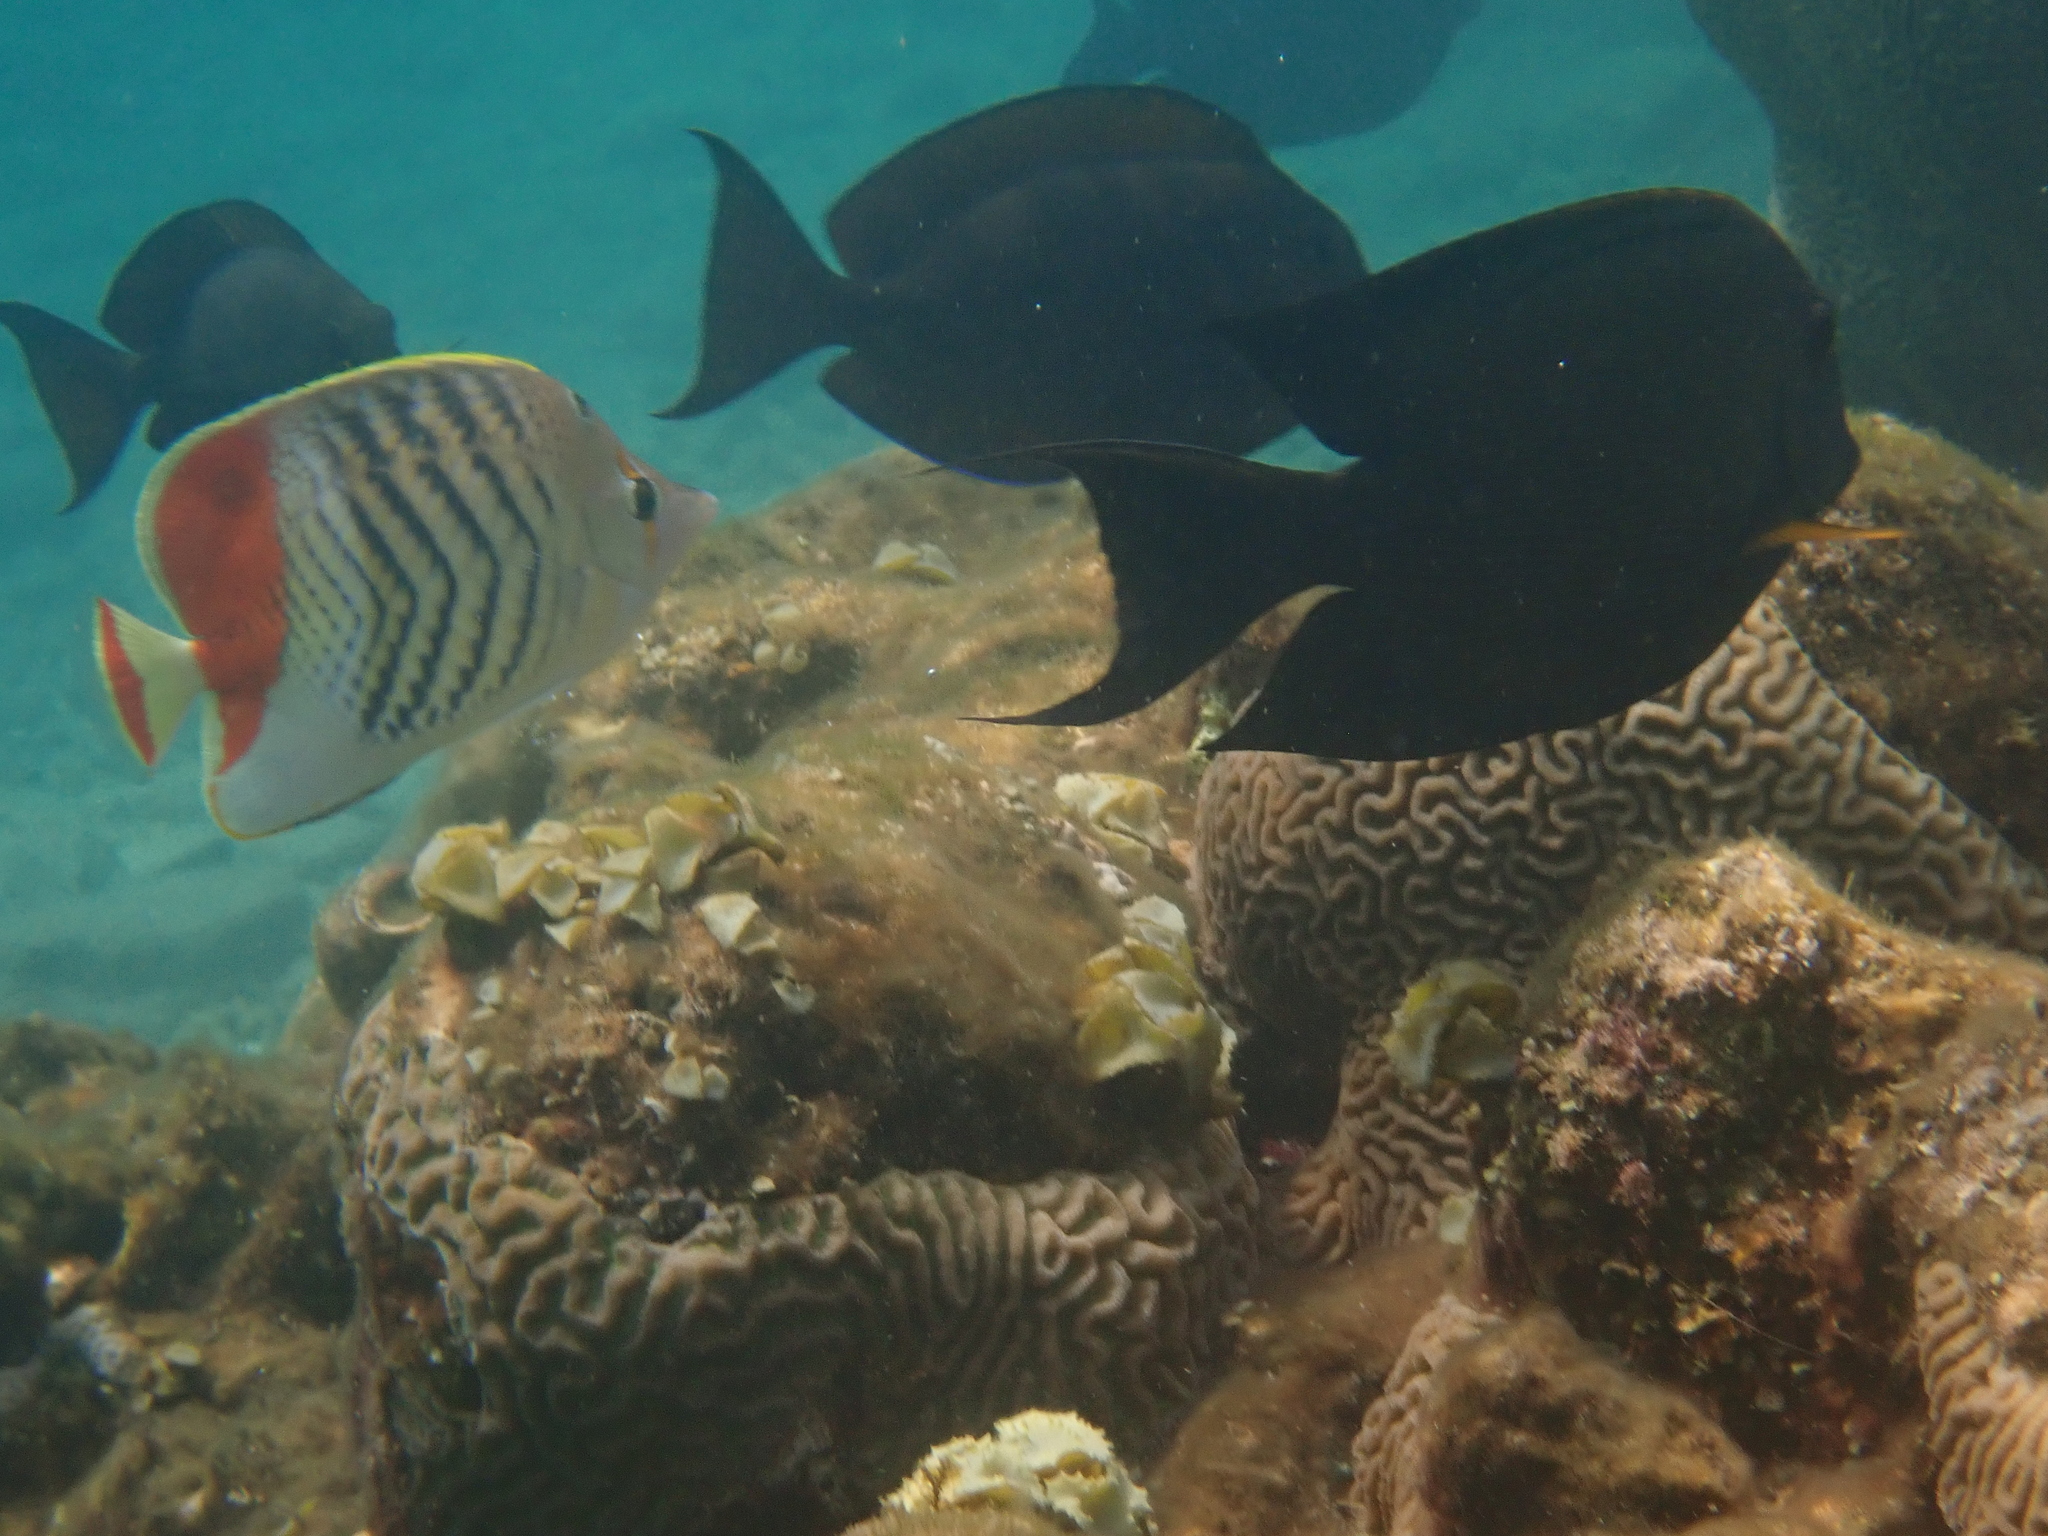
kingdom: Animalia
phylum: Chordata
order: Perciformes
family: Chaetodontidae
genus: Chaetodon
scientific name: Chaetodon paucifasciatus
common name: Crown butterflyfish
